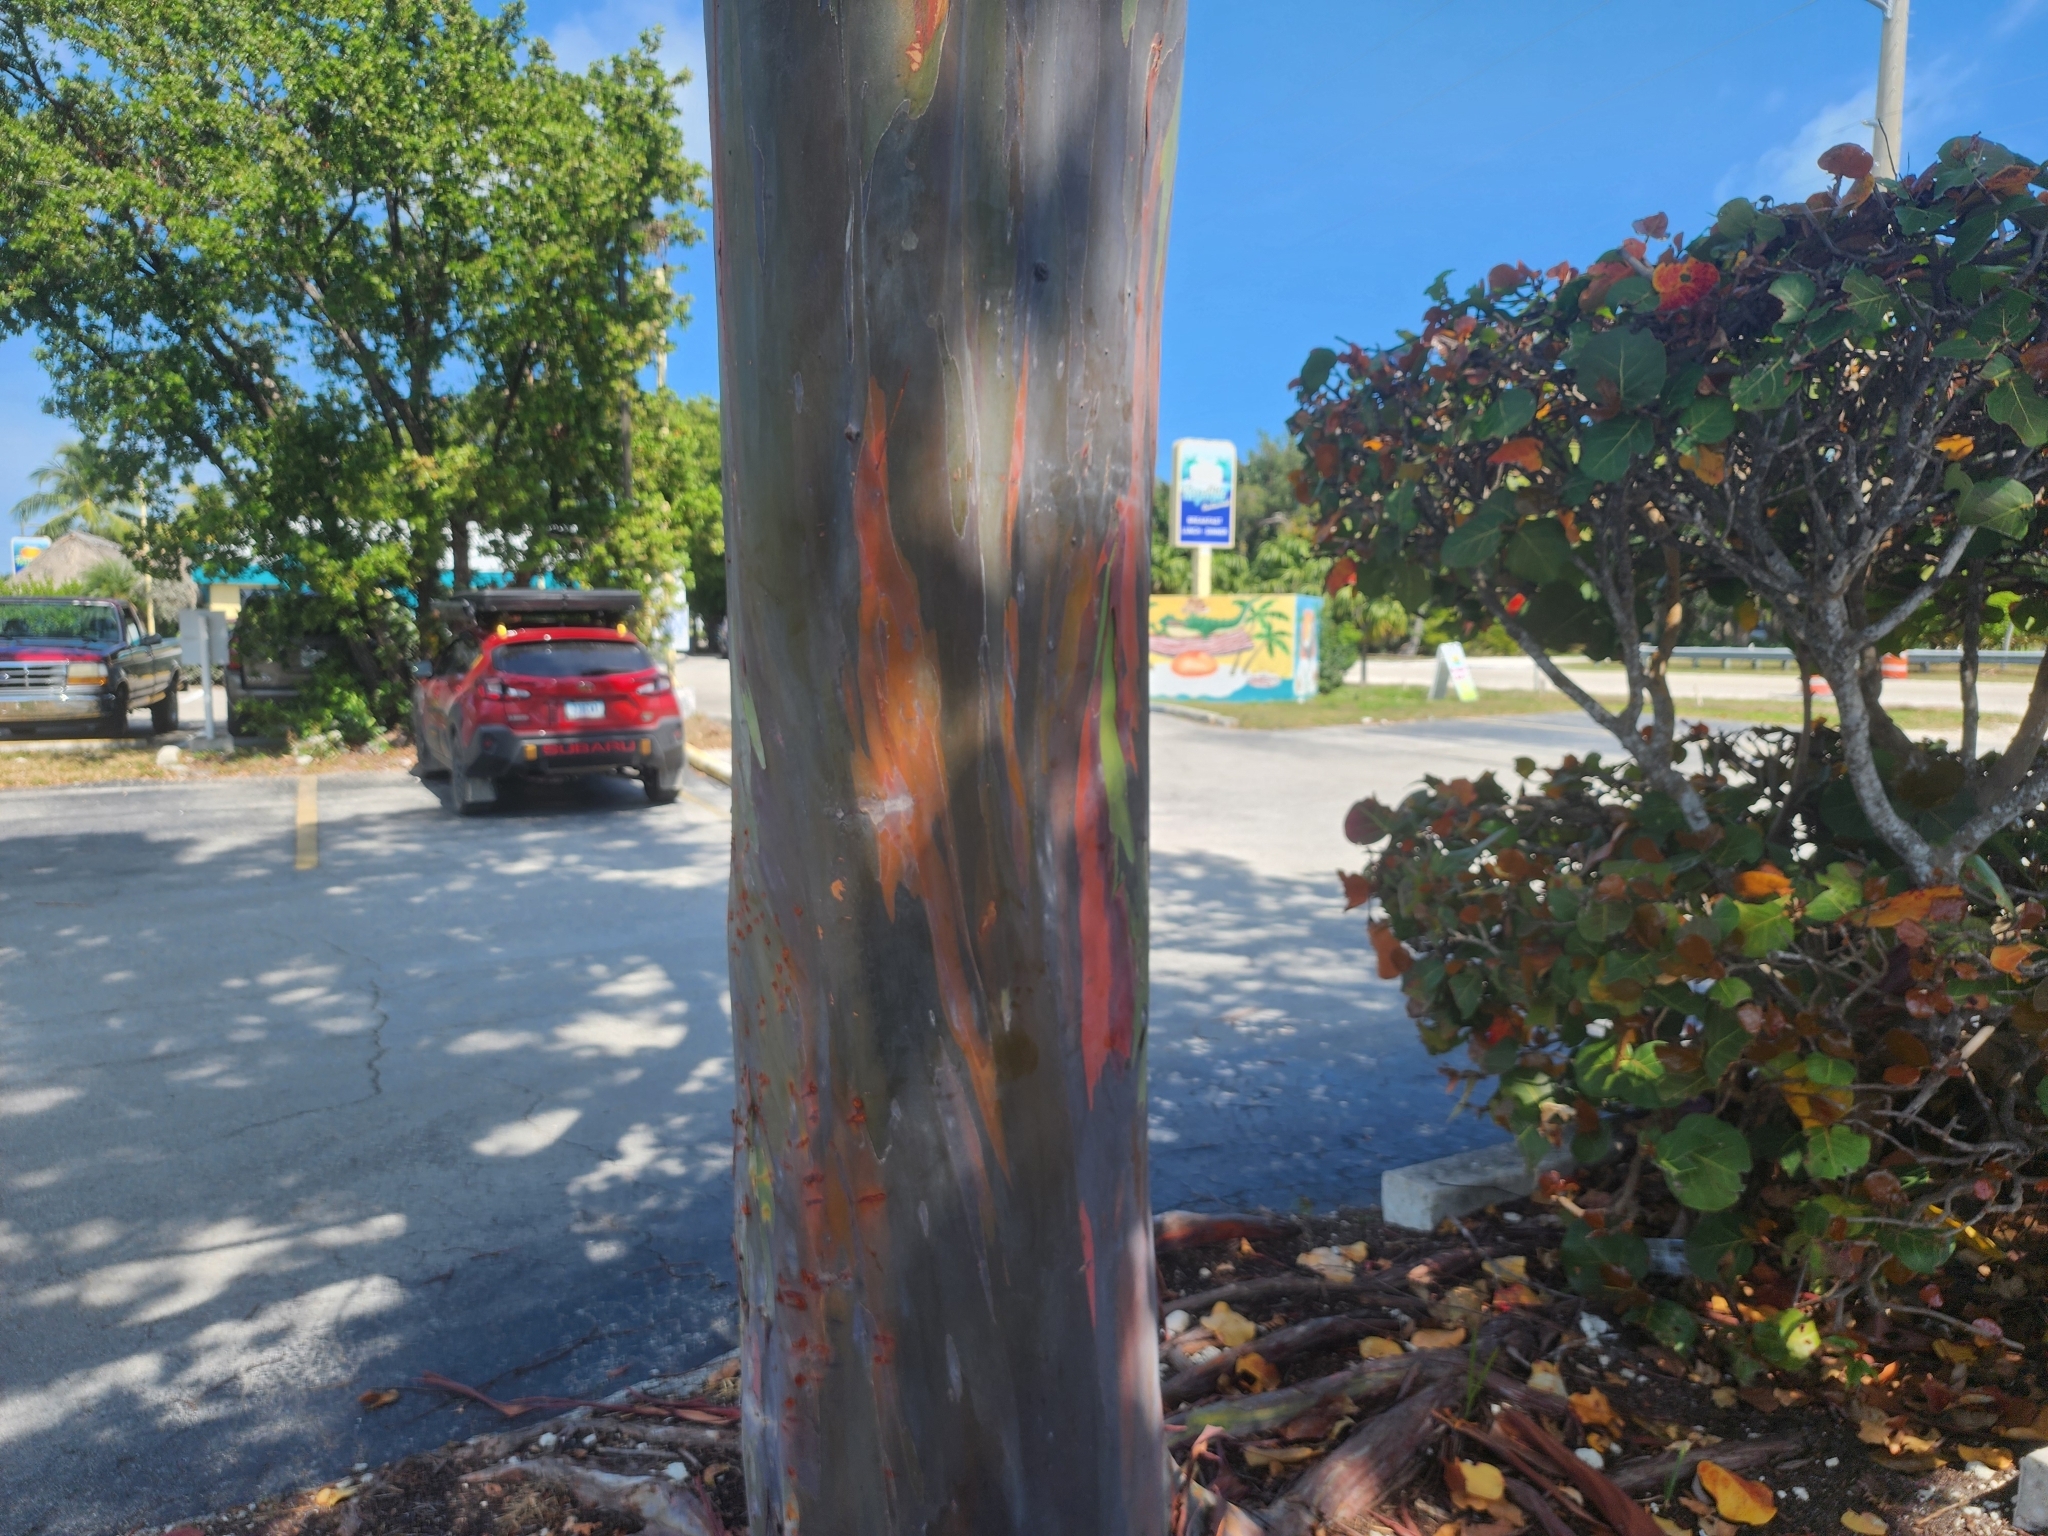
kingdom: Plantae
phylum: Tracheophyta
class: Magnoliopsida
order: Myrtales
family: Myrtaceae
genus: Eucalyptus
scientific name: Eucalyptus deglupta
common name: Mindanao gum
